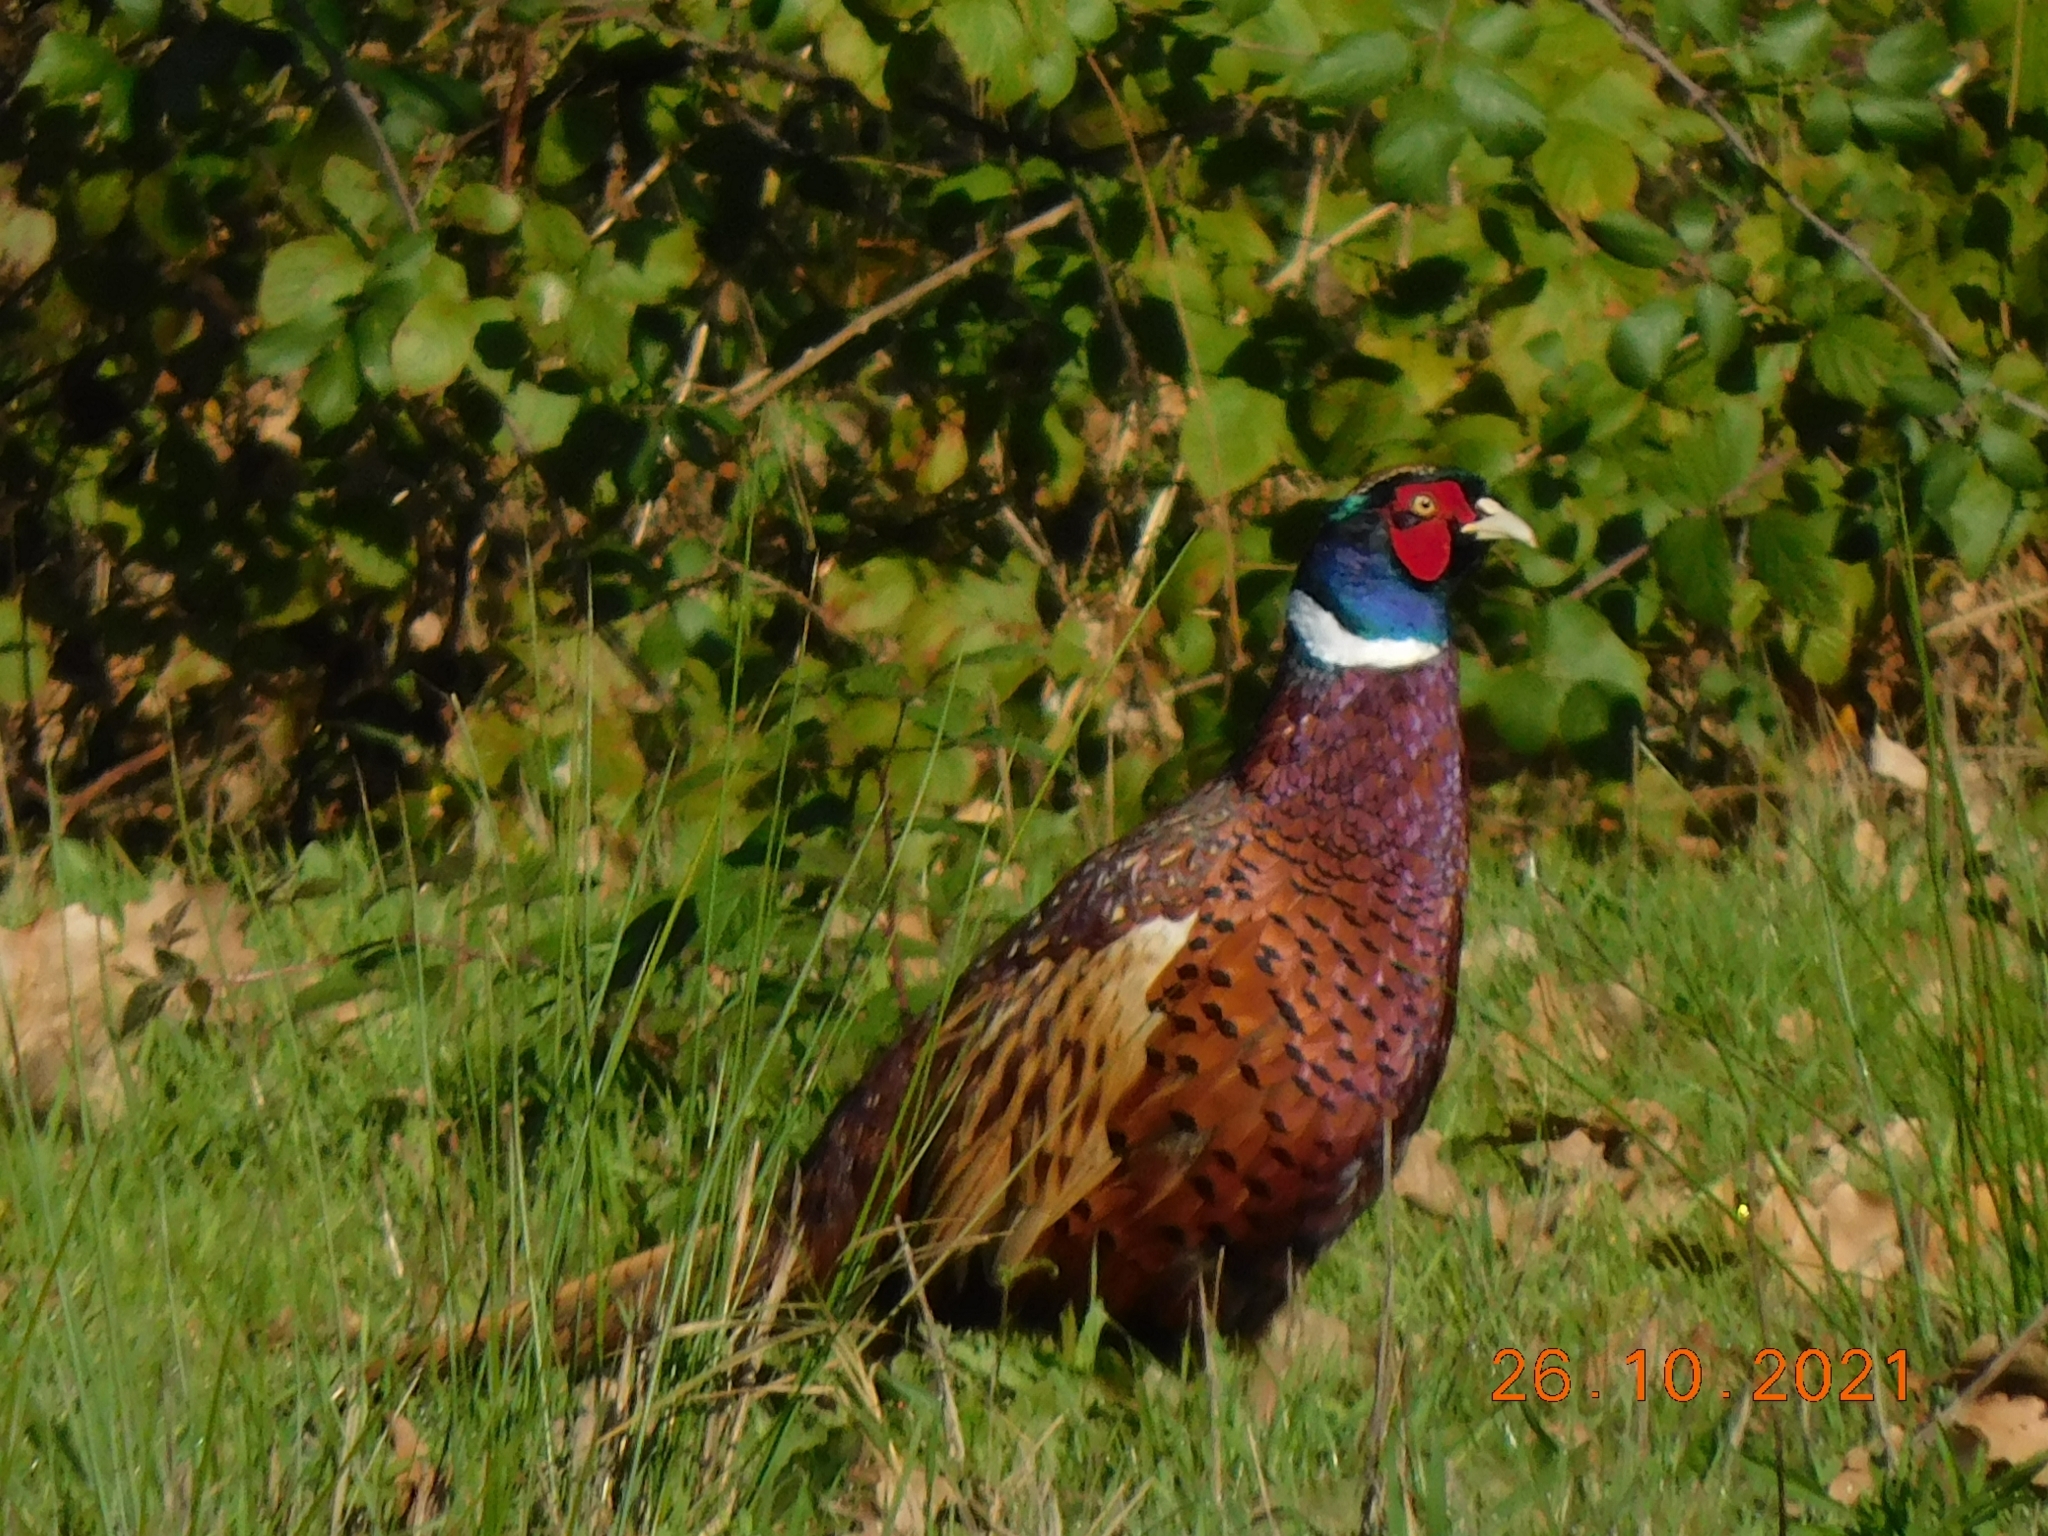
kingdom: Animalia
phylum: Chordata
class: Aves
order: Galliformes
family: Phasianidae
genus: Phasianus
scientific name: Phasianus colchicus
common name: Common pheasant
